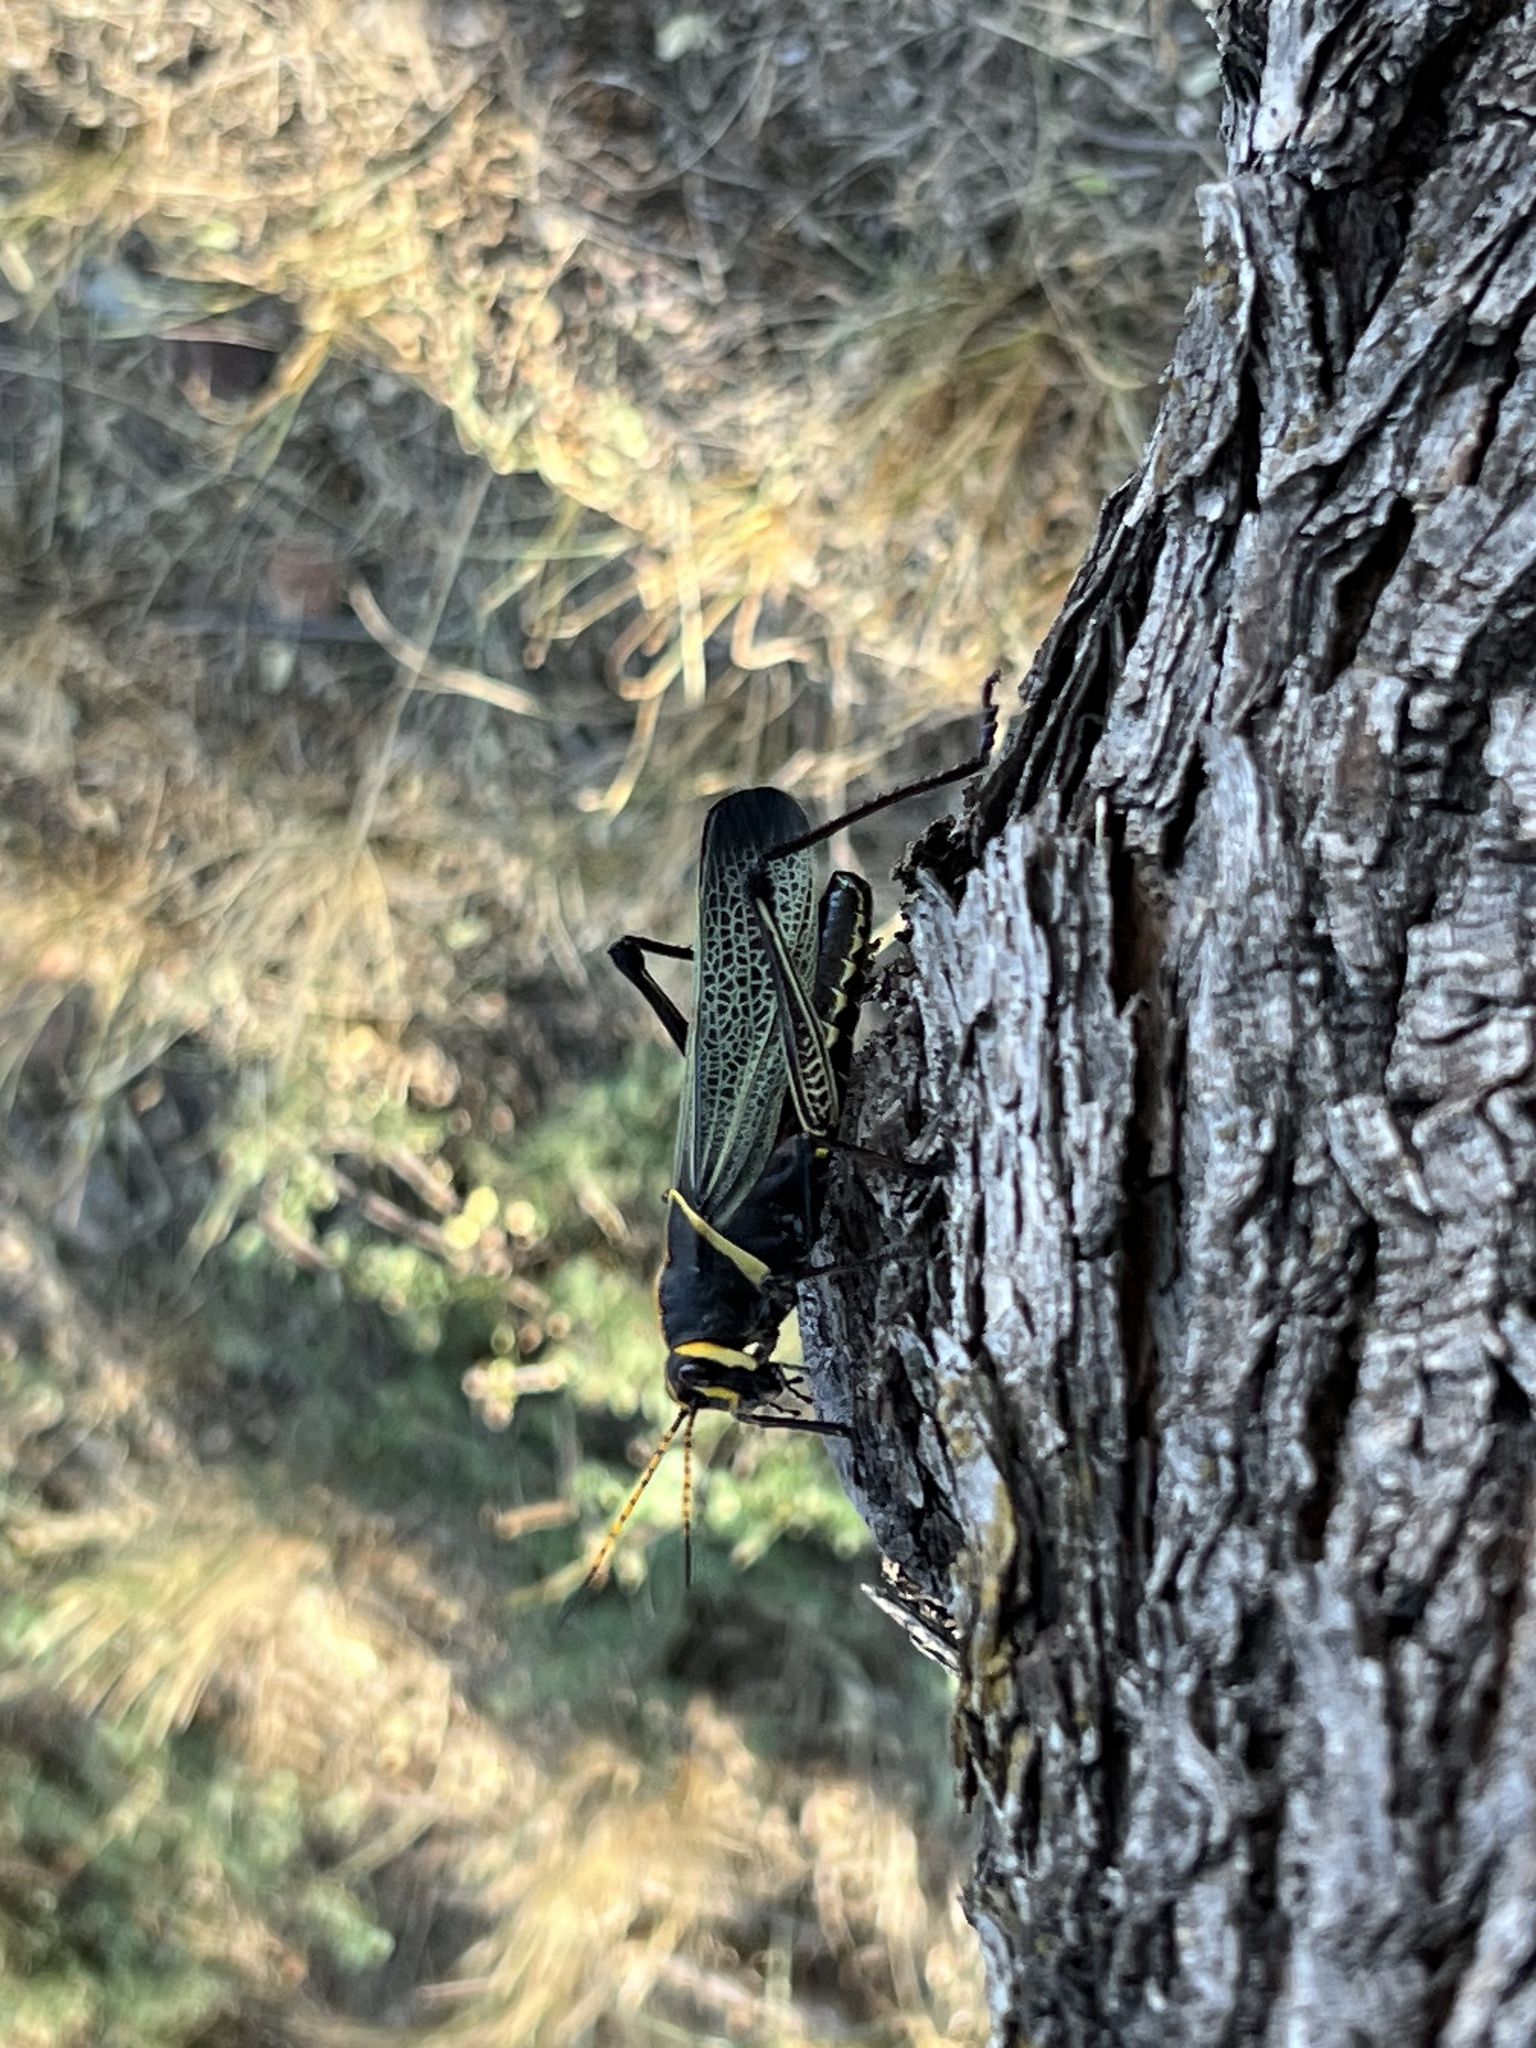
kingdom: Animalia
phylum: Arthropoda
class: Insecta
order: Orthoptera
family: Romaleidae
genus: Romalea
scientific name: Romalea
